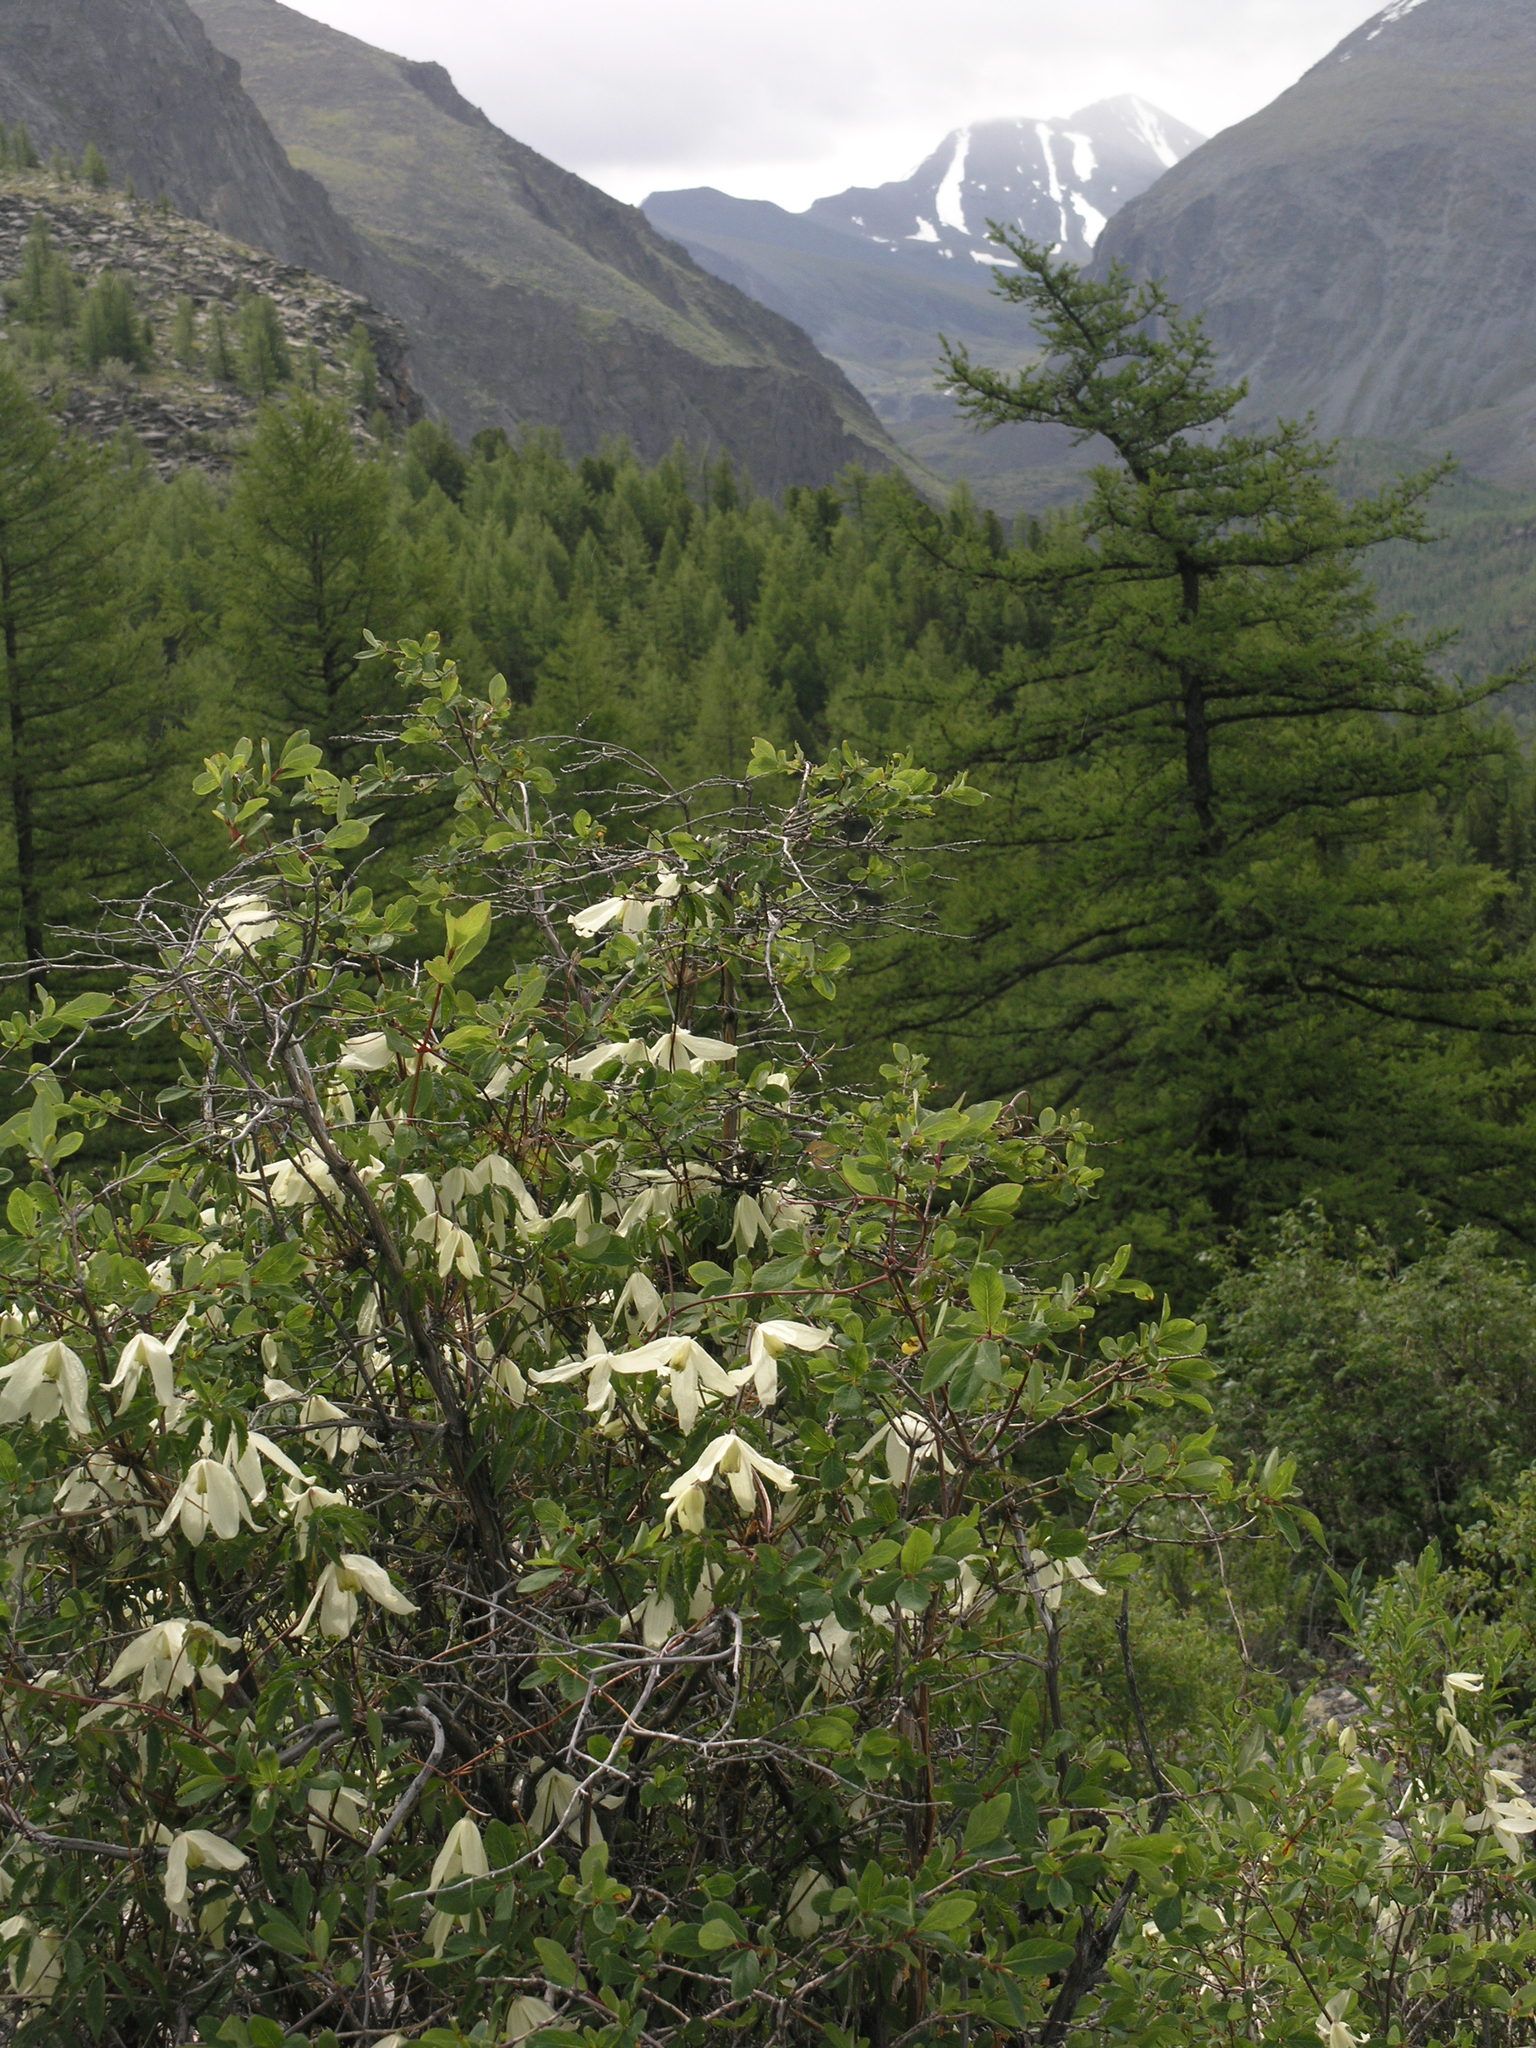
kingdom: Plantae
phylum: Tracheophyta
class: Magnoliopsida
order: Ranunculales
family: Ranunculaceae
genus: Clematis
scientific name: Clematis sibirica
